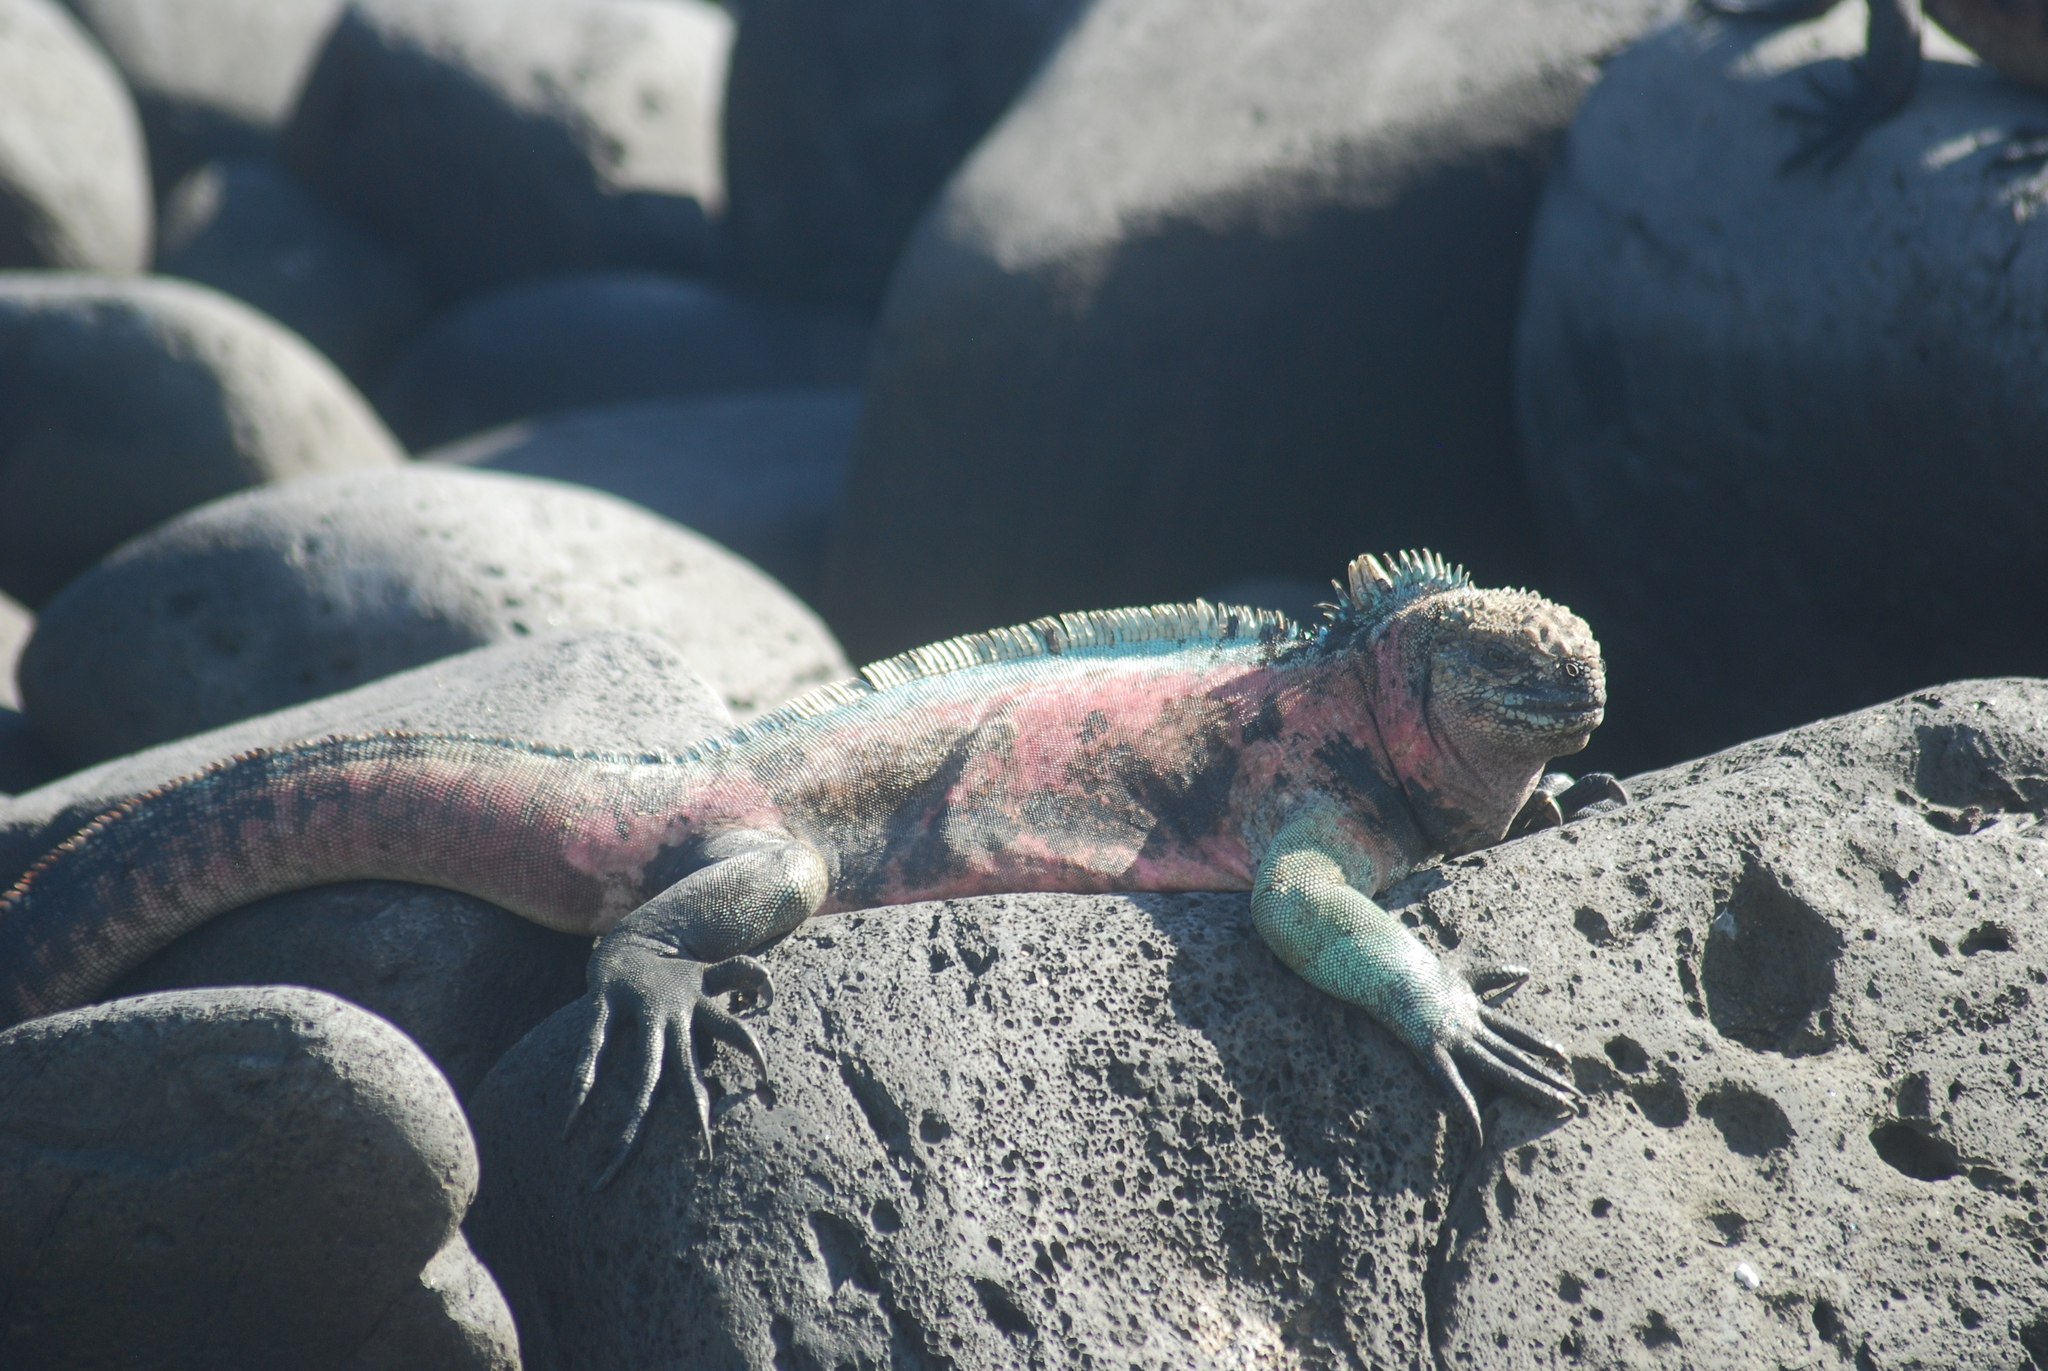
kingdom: Animalia
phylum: Chordata
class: Squamata
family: Iguanidae
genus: Amblyrhynchus
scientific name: Amblyrhynchus cristatus
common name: Marine iguana
